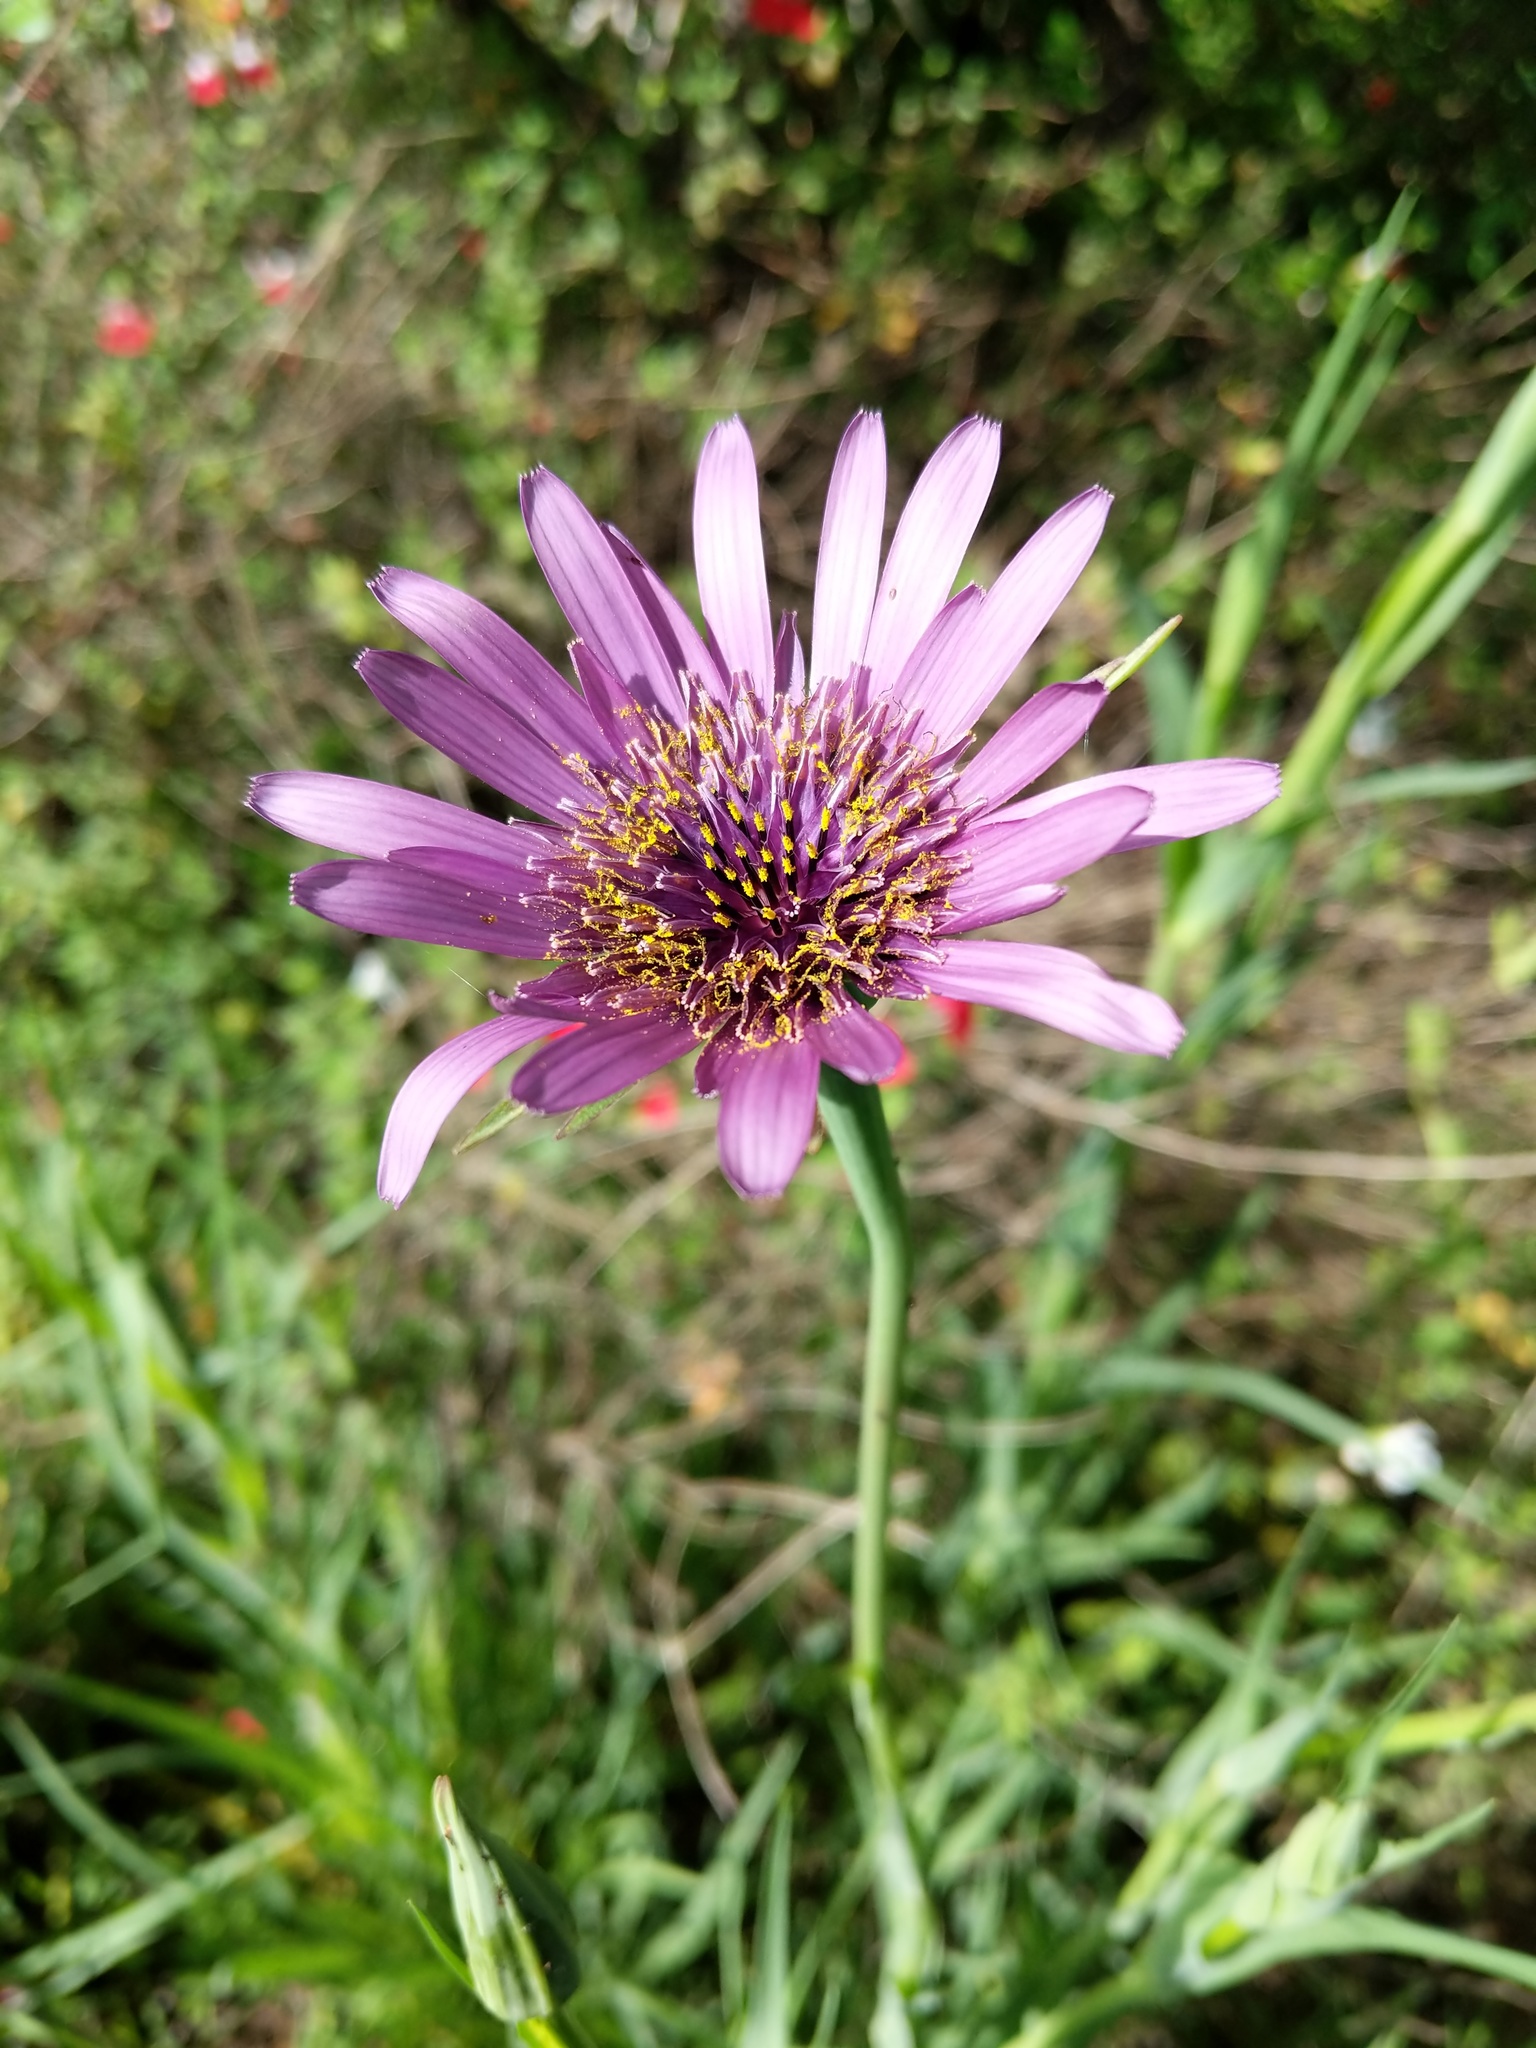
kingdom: Plantae
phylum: Tracheophyta
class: Magnoliopsida
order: Asterales
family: Asteraceae
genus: Tragopogon
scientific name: Tragopogon porrifolius
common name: Salsify
